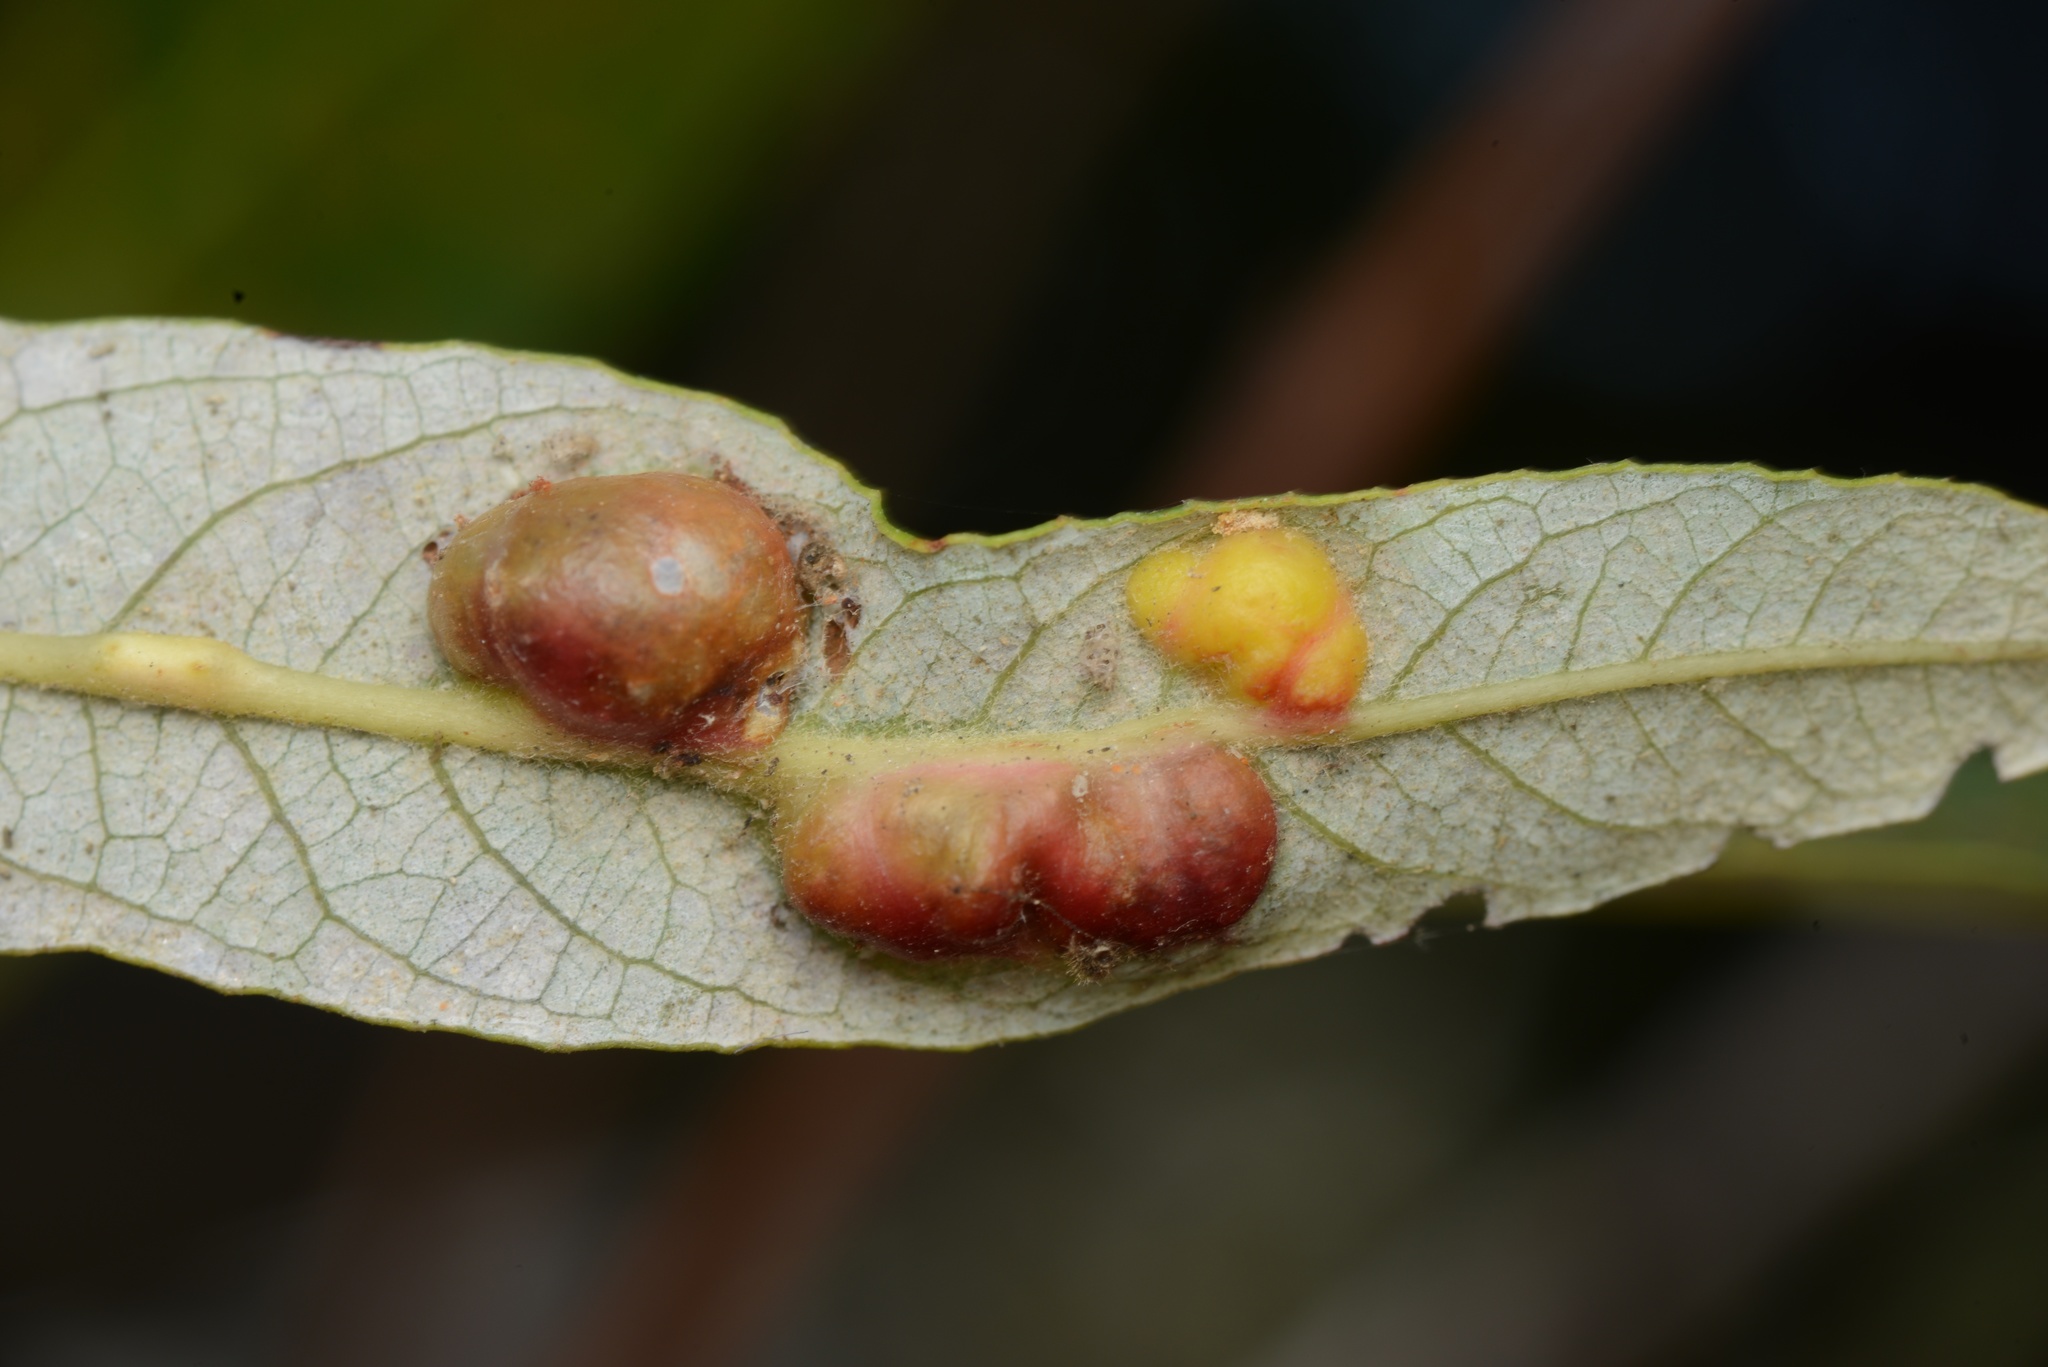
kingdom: Animalia
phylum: Arthropoda
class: Insecta
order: Hymenoptera
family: Tenthredinidae
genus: Euura
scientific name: Euura
